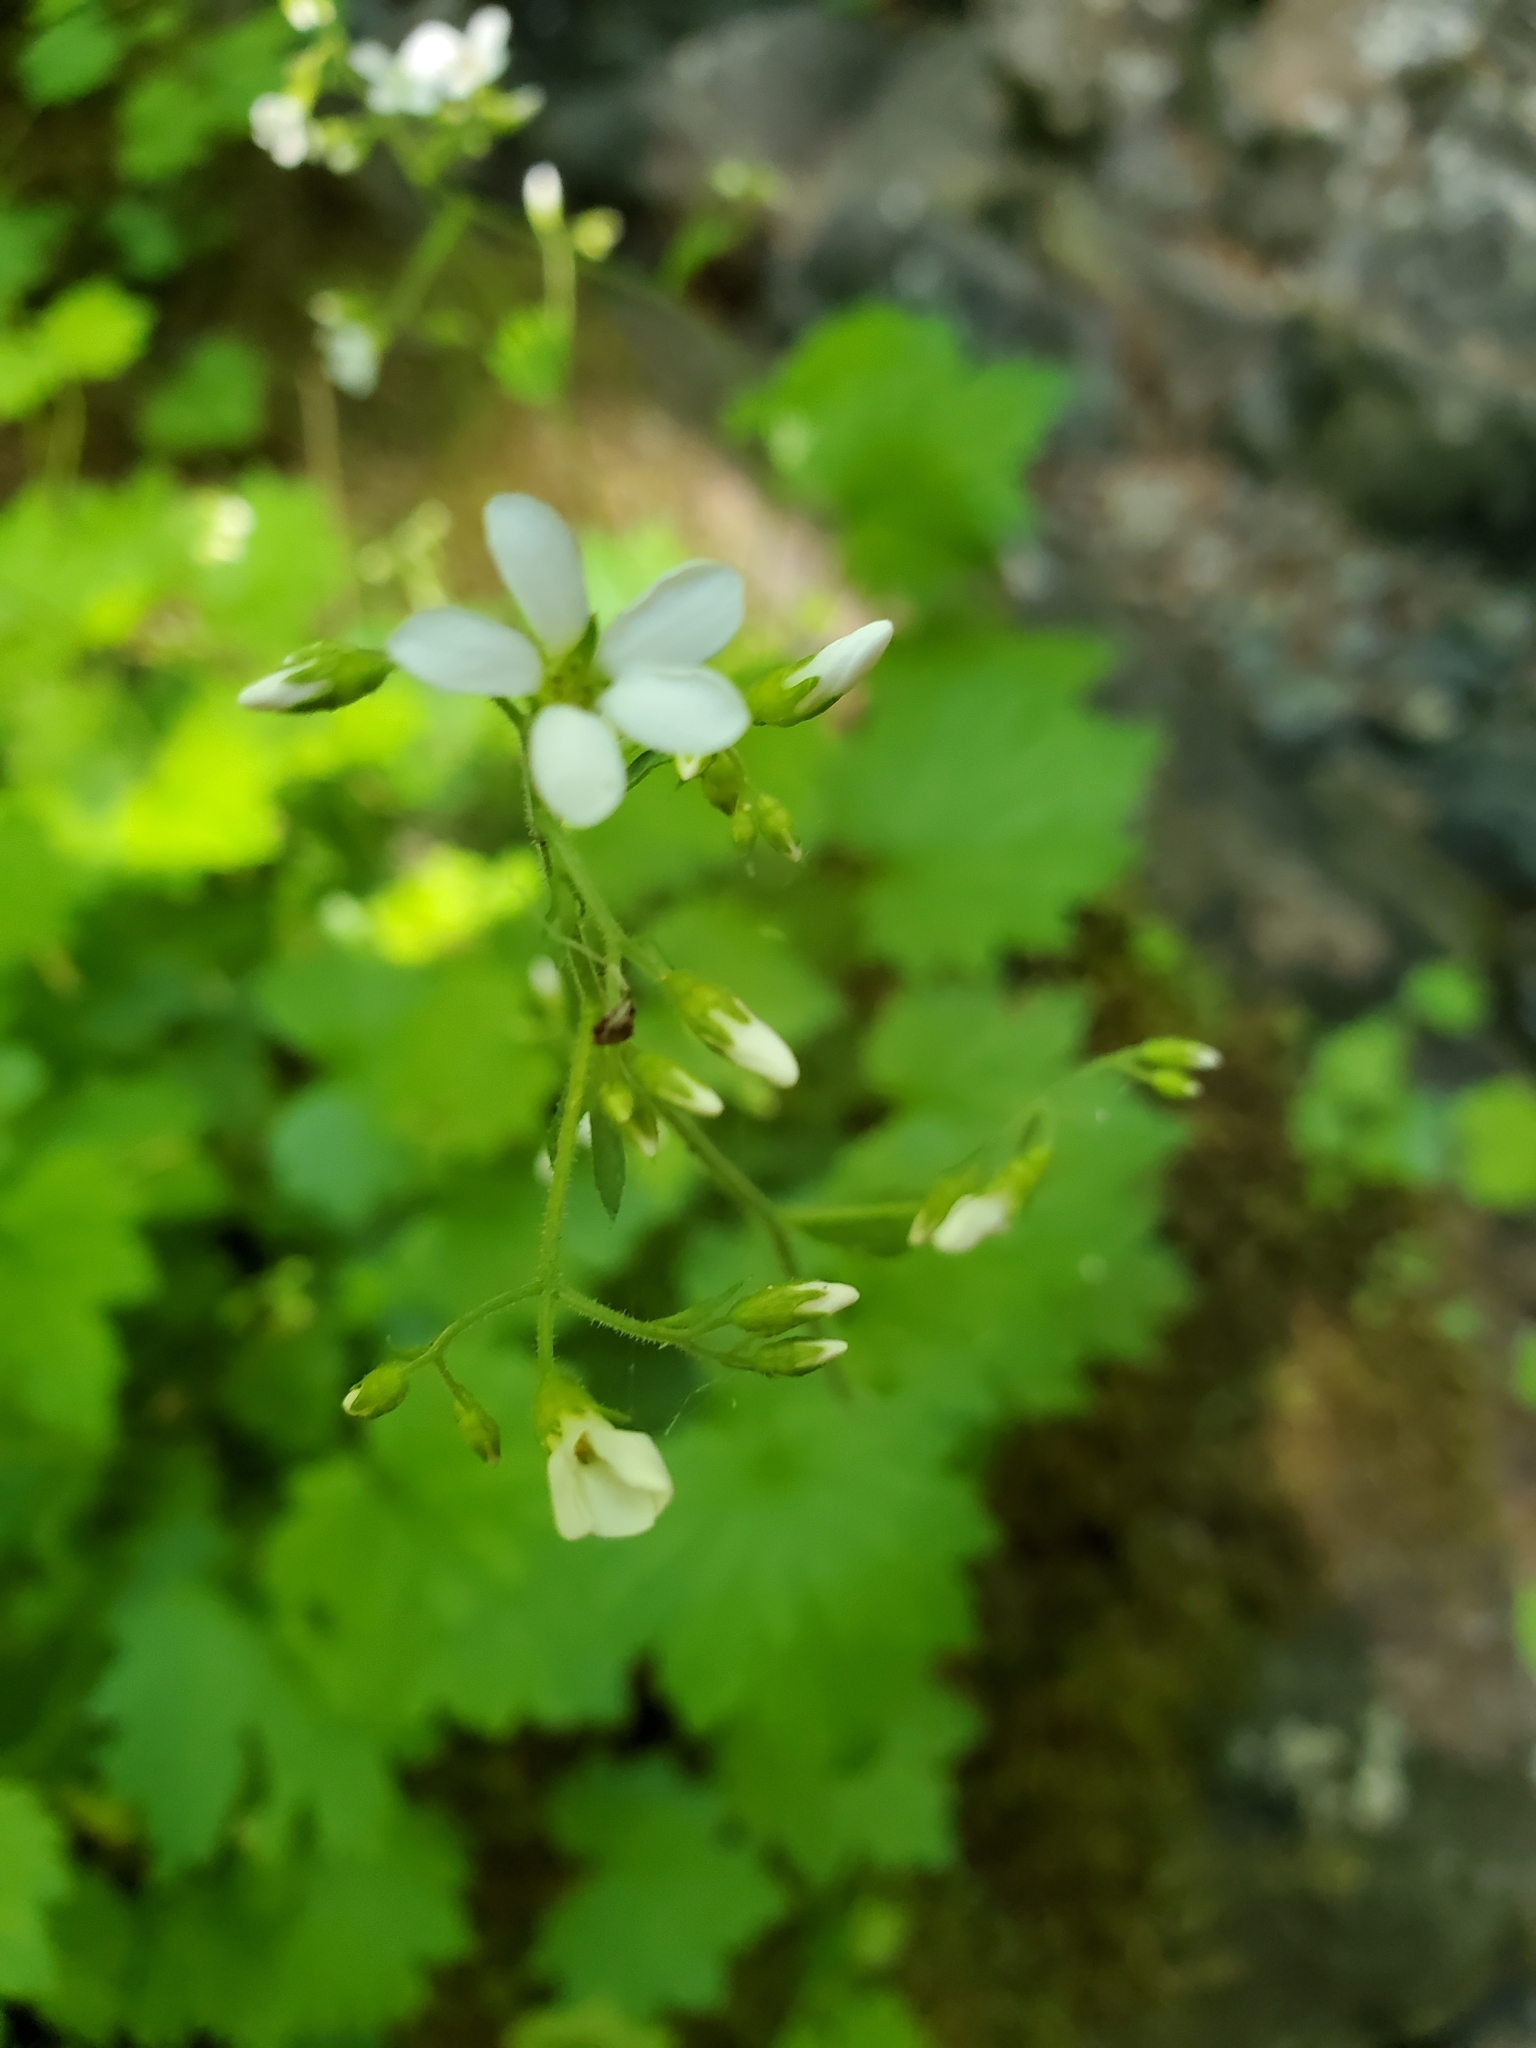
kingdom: Plantae
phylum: Tracheophyta
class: Magnoliopsida
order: Saxifragales
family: Saxifragaceae
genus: Boykinia
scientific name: Boykinia occidentalis
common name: Coast boykinia
